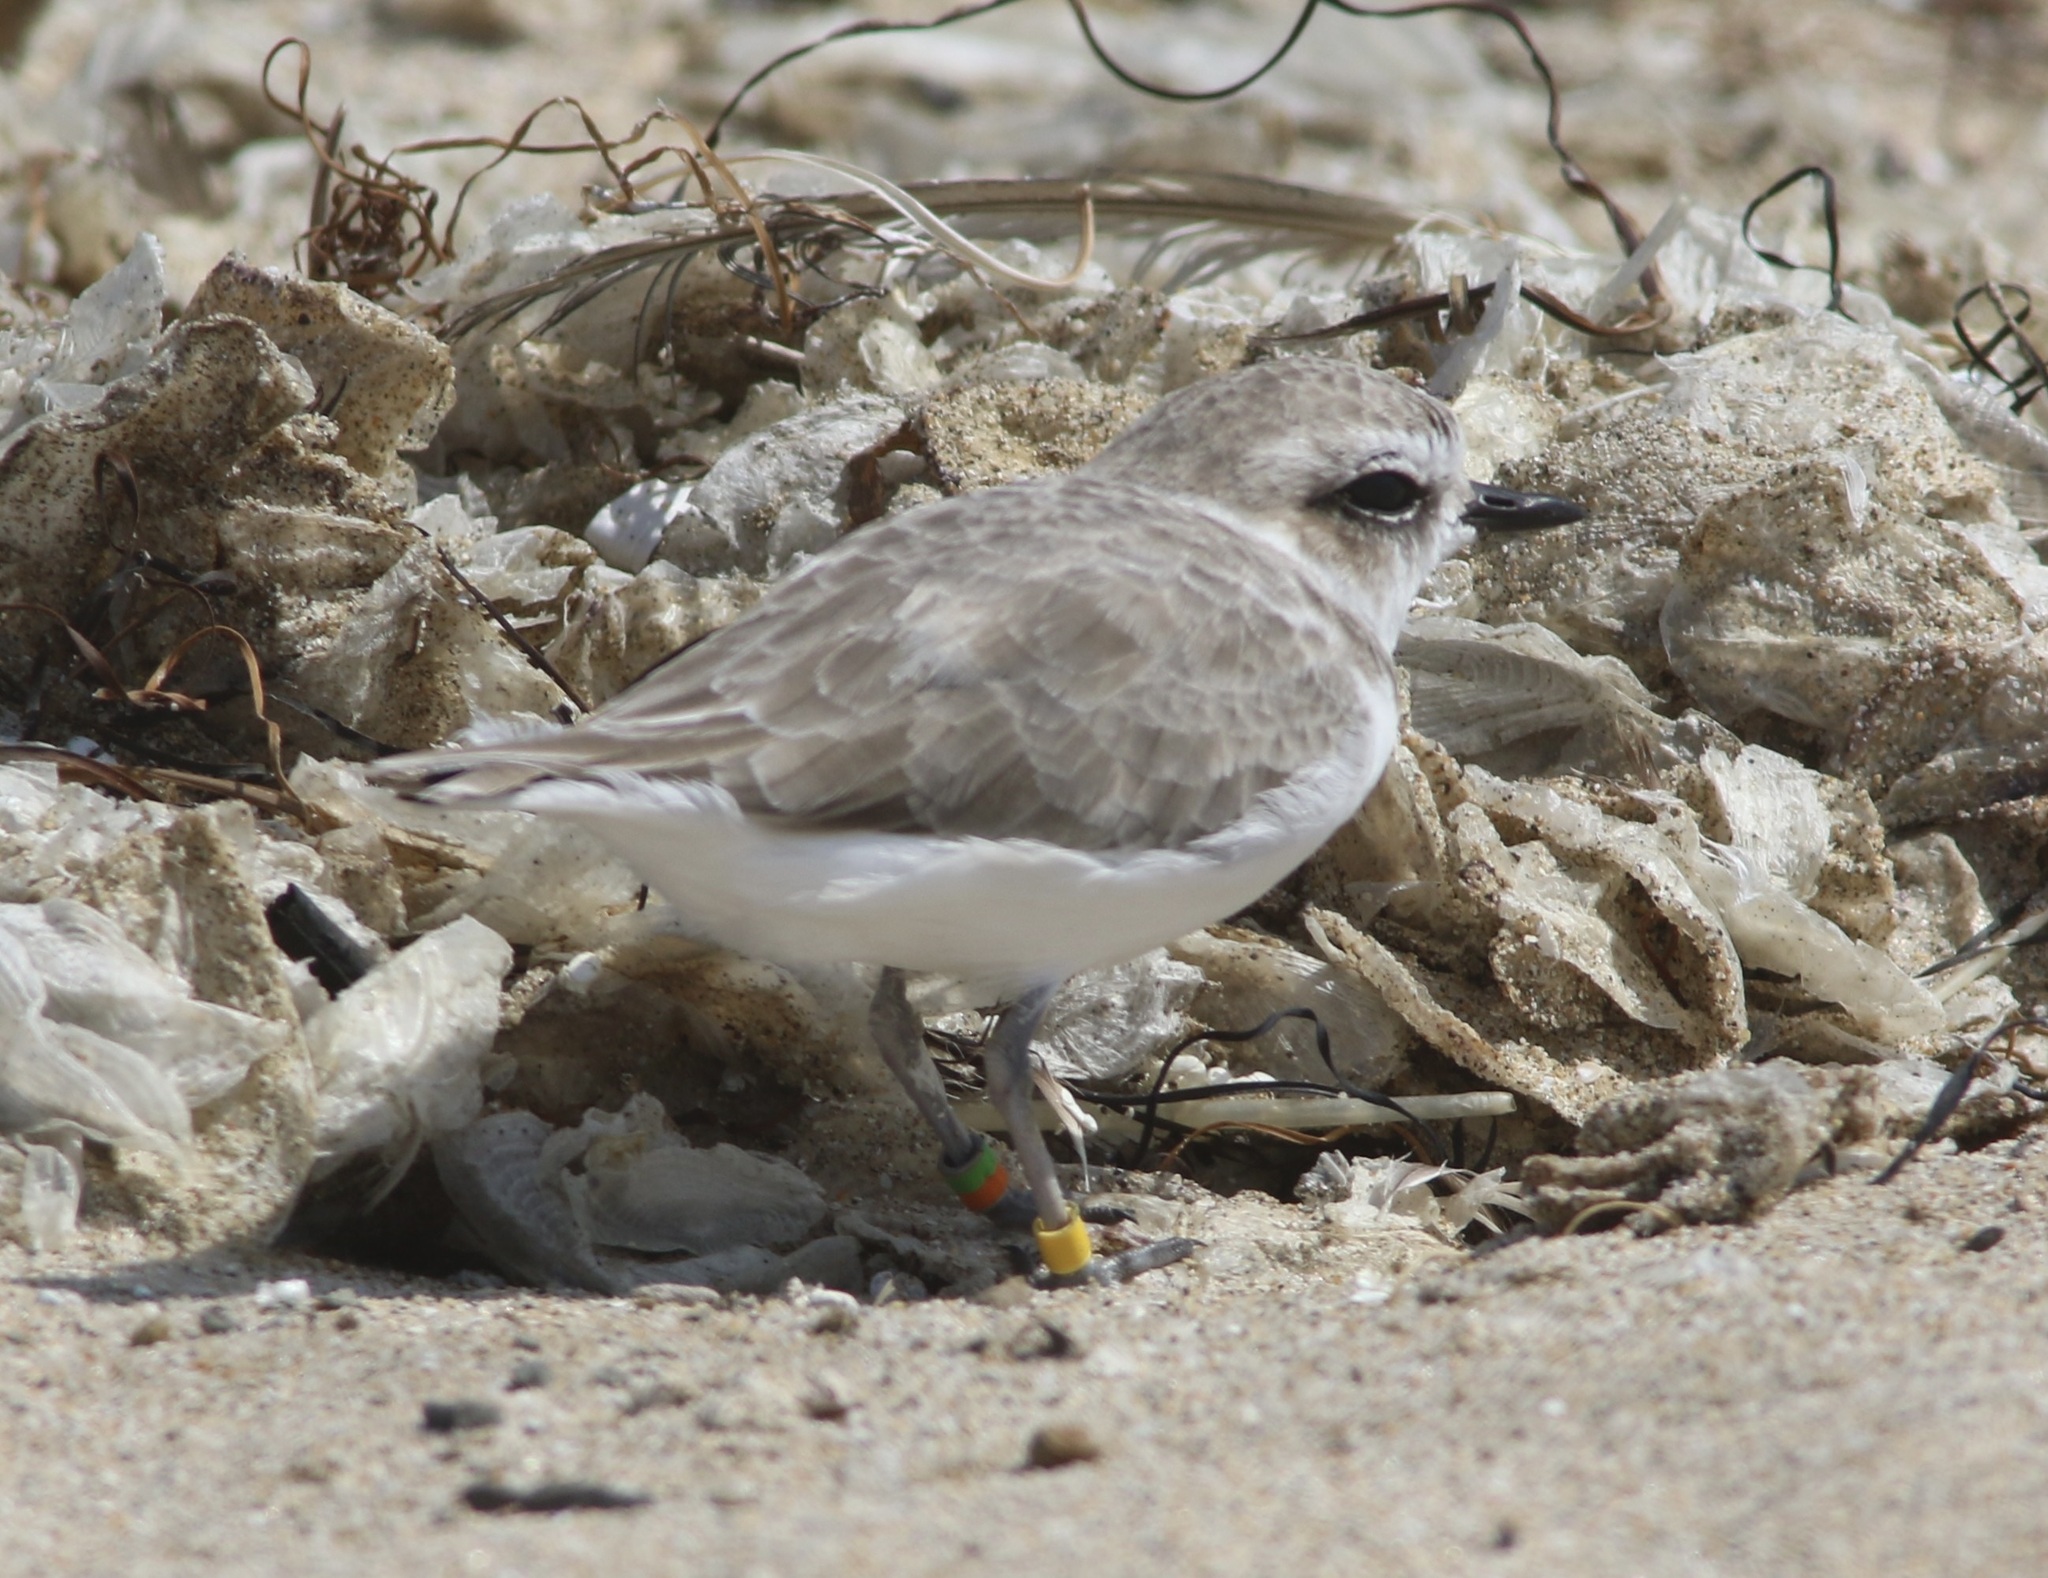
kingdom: Animalia
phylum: Chordata
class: Aves
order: Charadriiformes
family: Charadriidae
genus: Anarhynchus
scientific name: Anarhynchus
